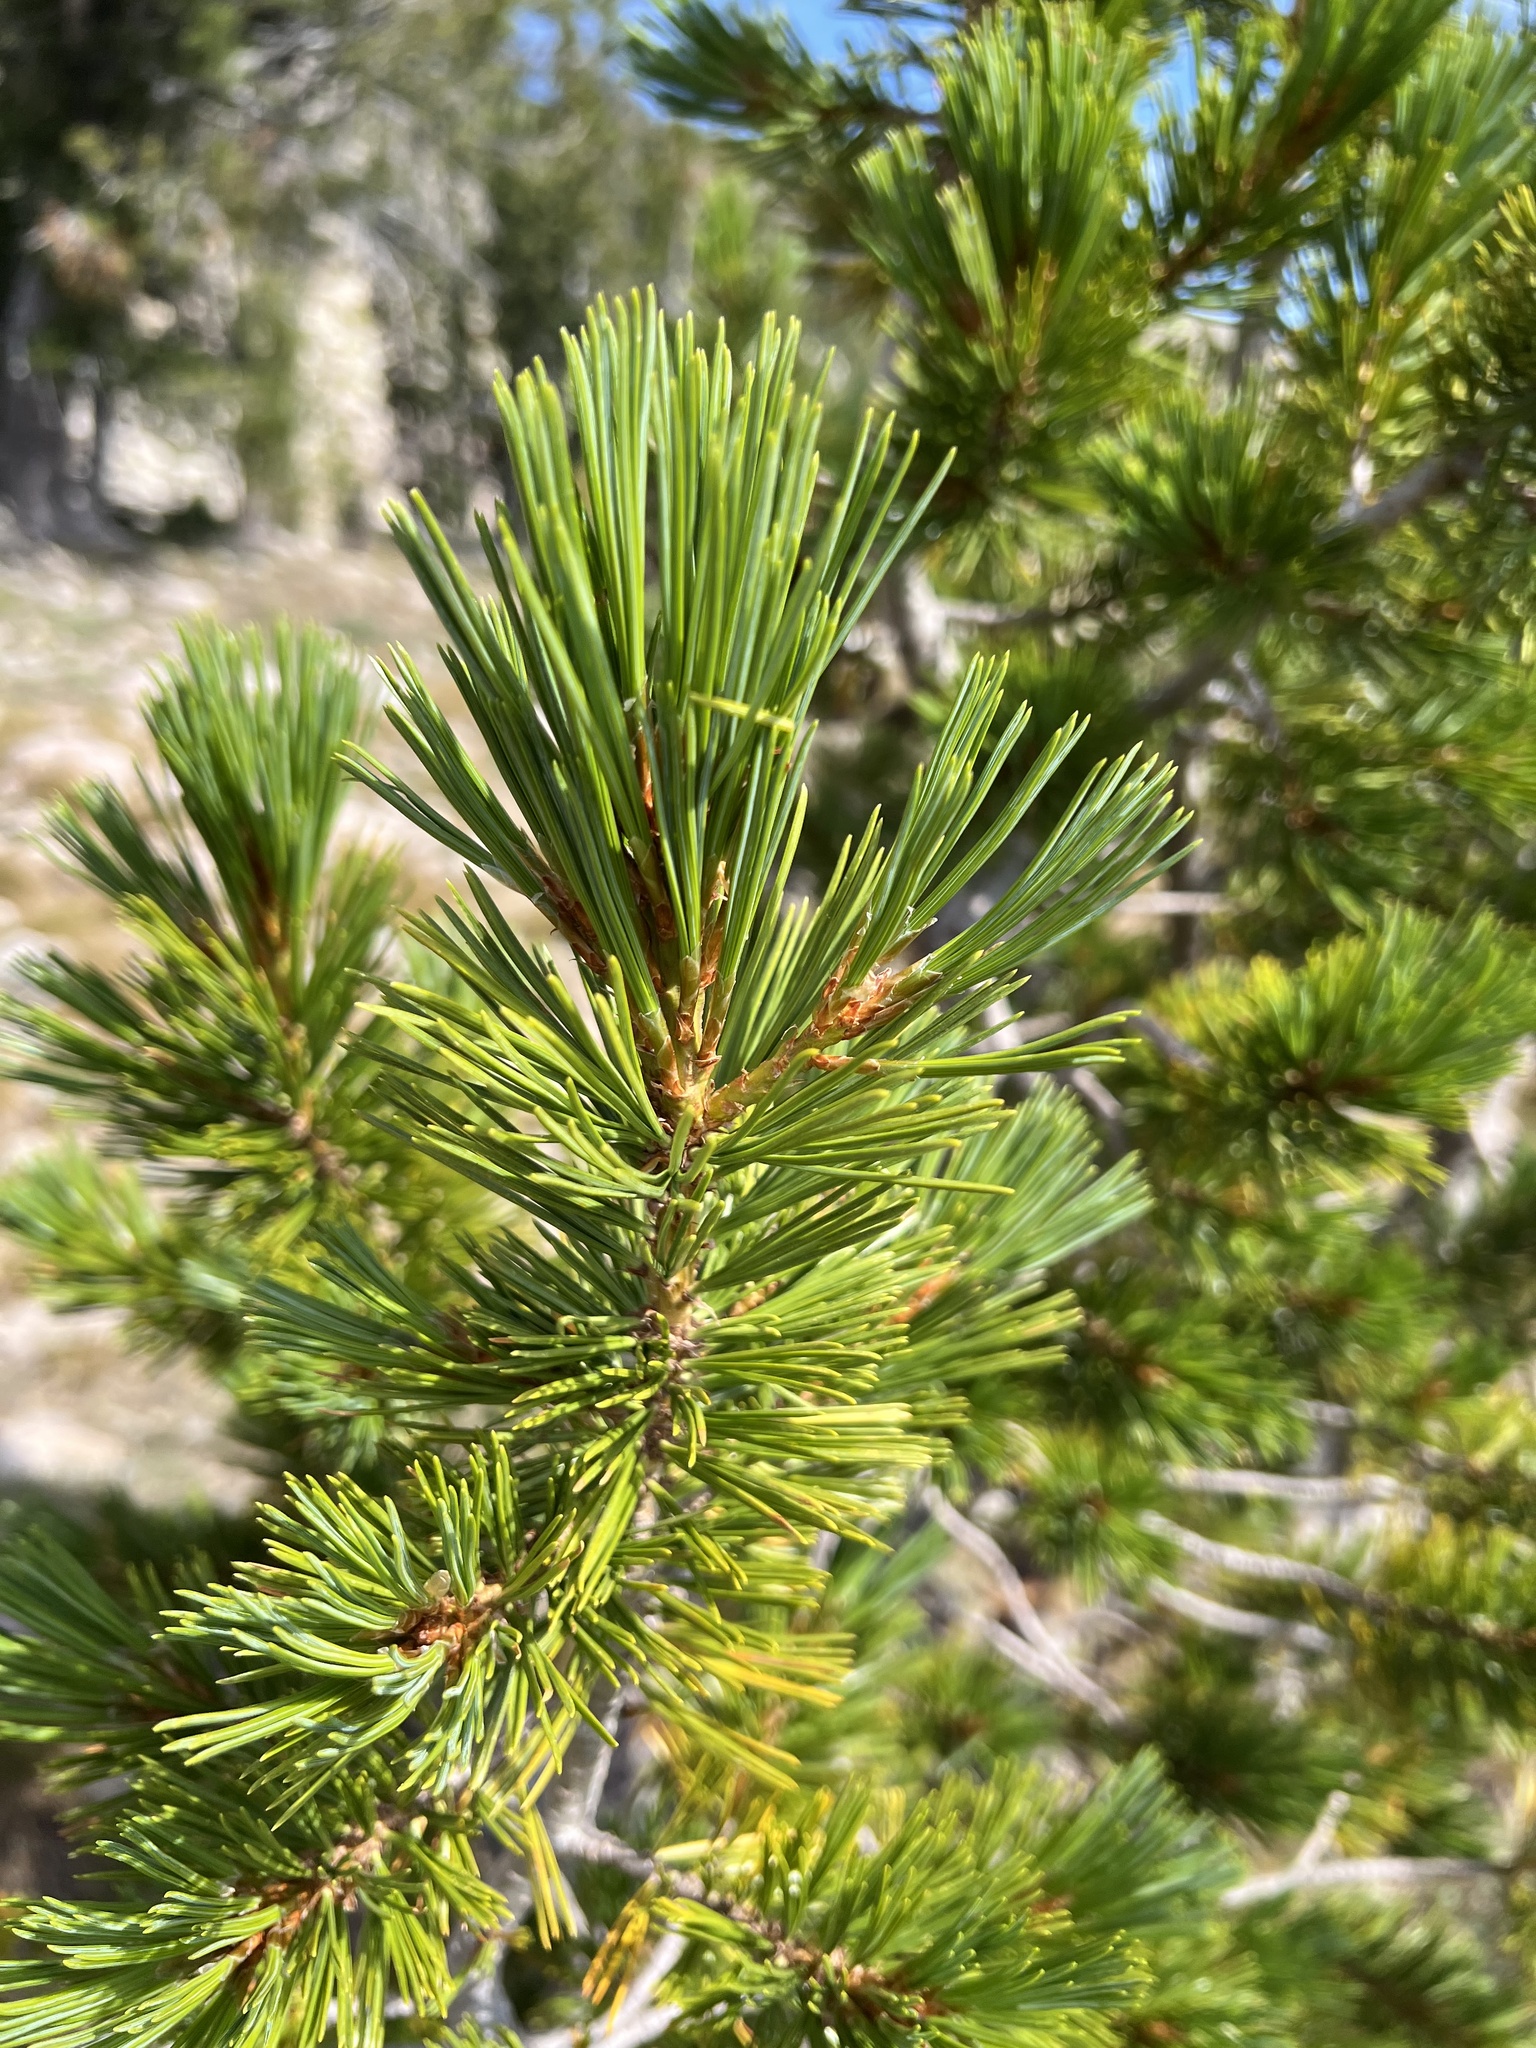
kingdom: Plantae
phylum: Tracheophyta
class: Pinopsida
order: Pinales
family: Pinaceae
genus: Pinus
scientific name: Pinus albicaulis
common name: Whitebark pine
